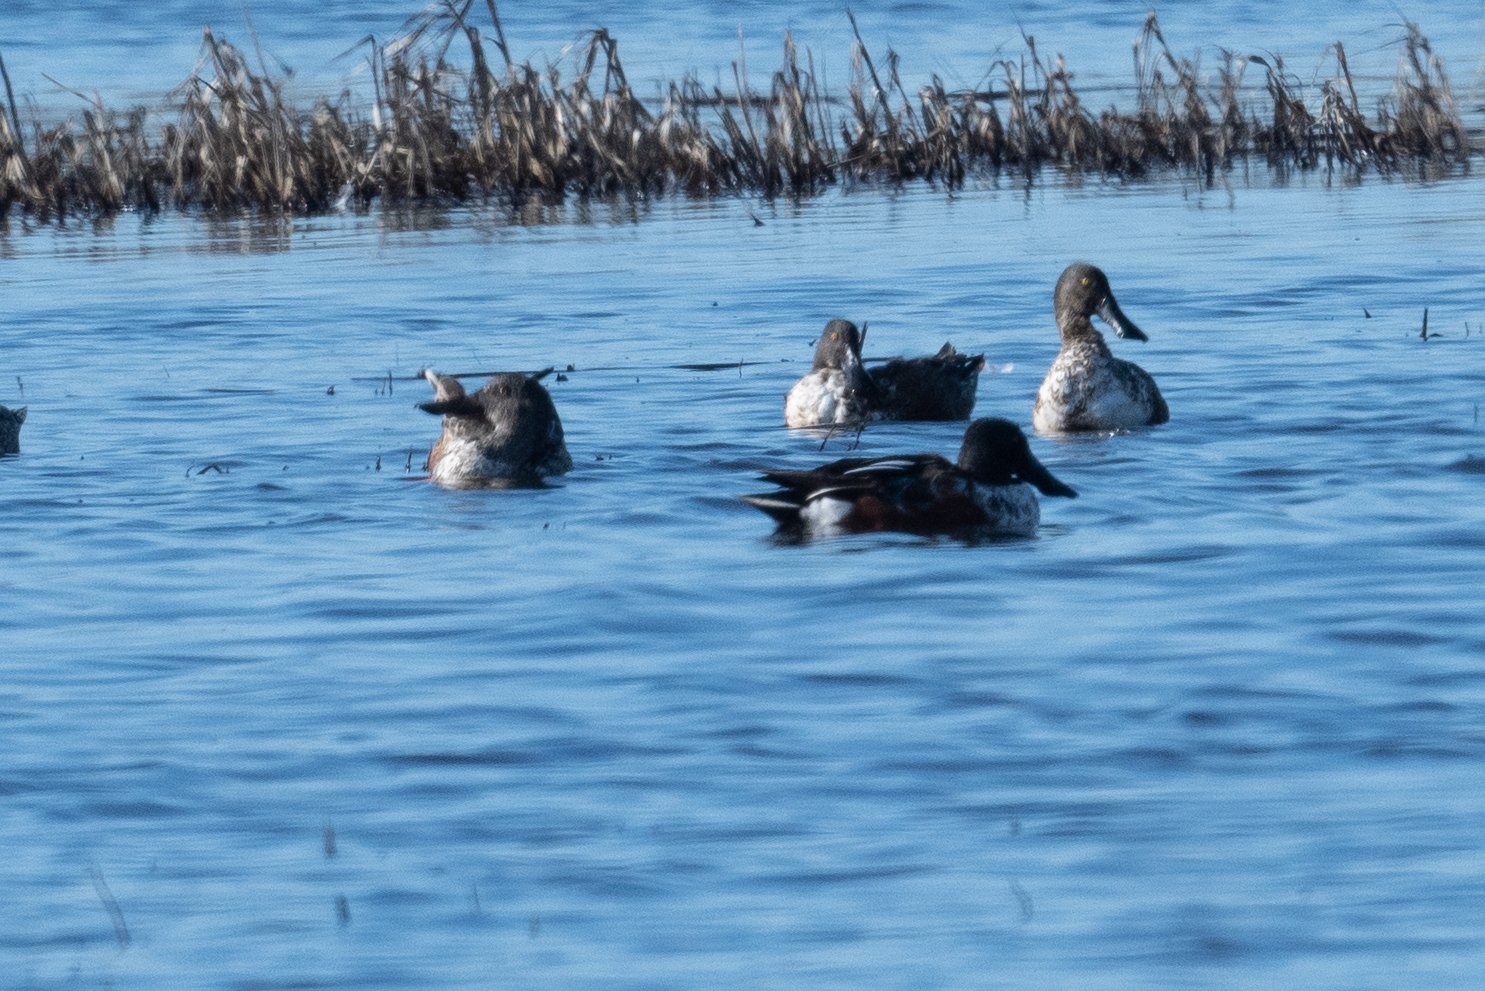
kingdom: Animalia
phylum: Chordata
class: Aves
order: Anseriformes
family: Anatidae
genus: Spatula
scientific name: Spatula clypeata
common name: Northern shoveler
